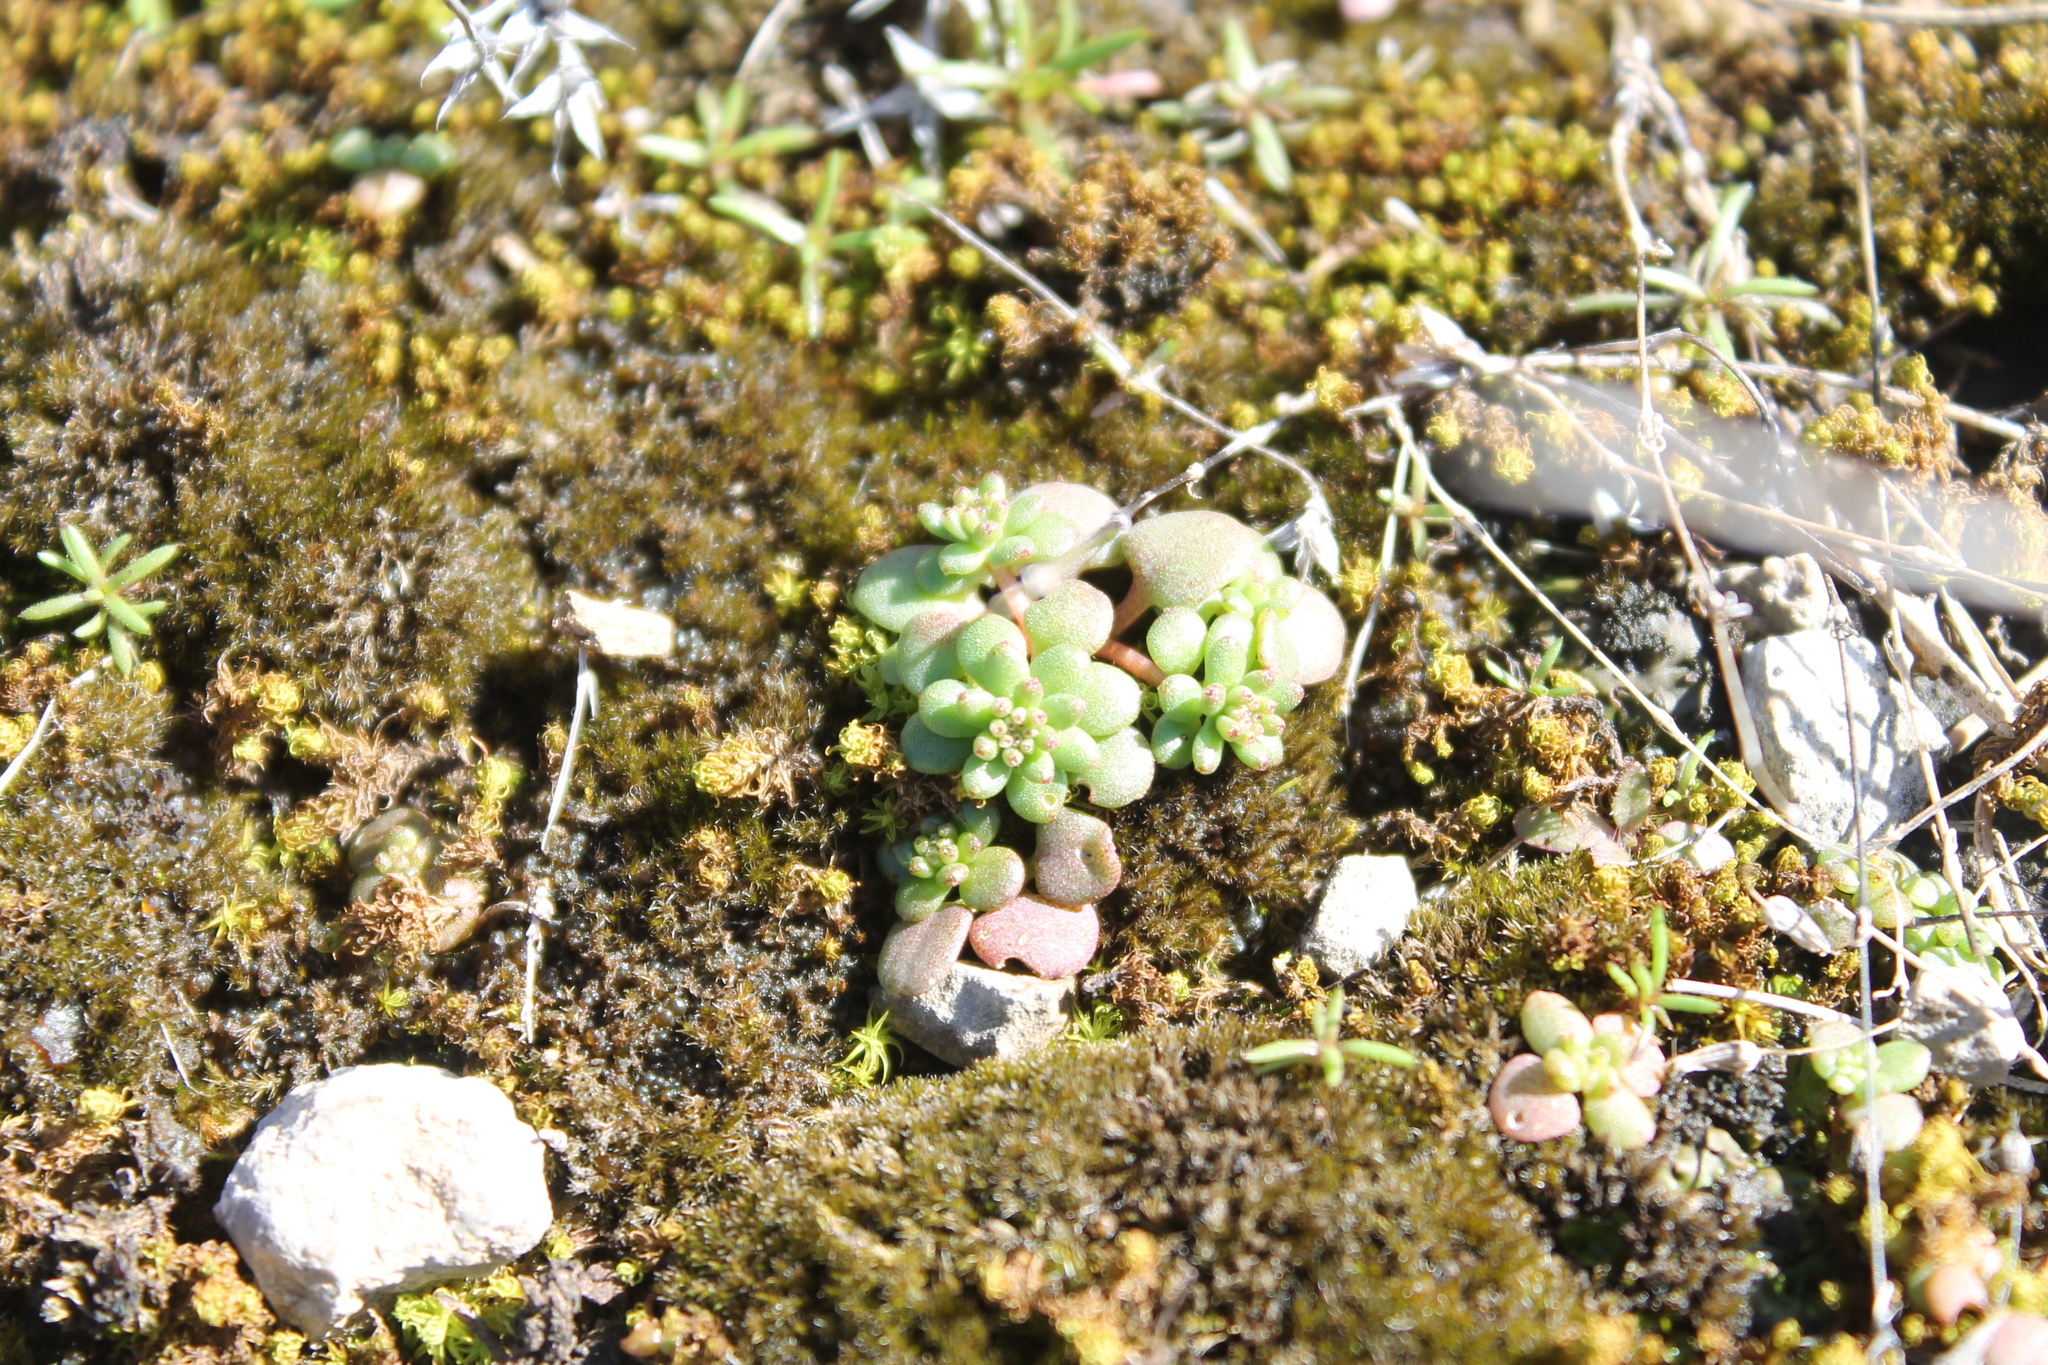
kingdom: Plantae
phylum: Tracheophyta
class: Magnoliopsida
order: Saxifragales
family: Crassulaceae
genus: Sedum
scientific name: Sedum pulchellum
